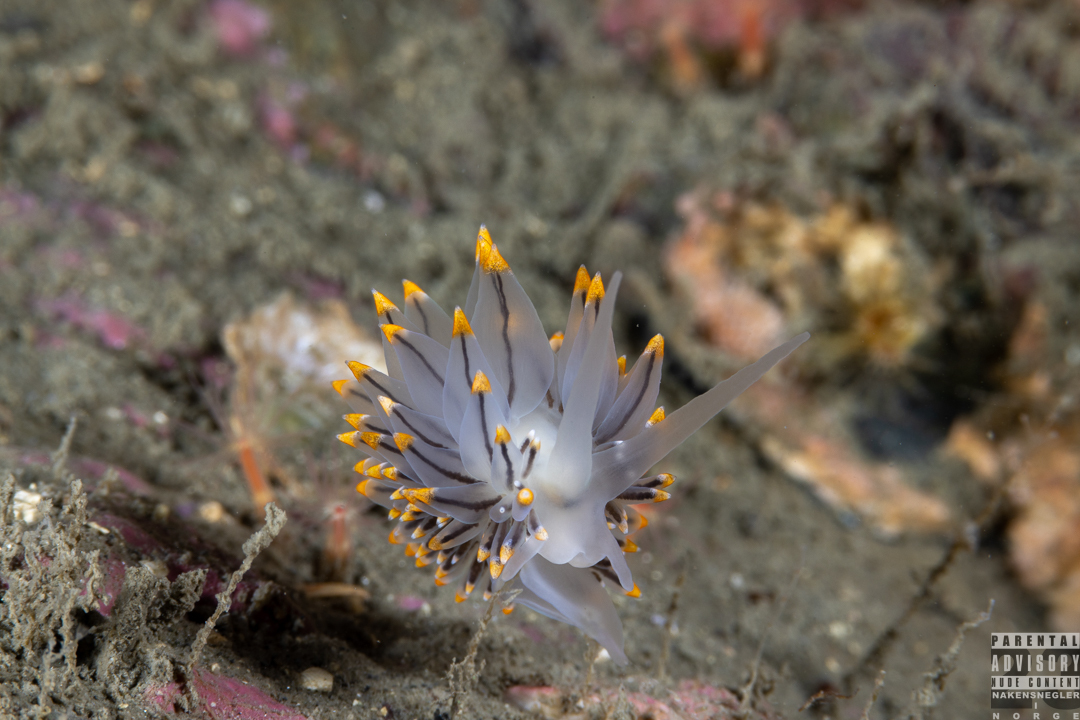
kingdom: Animalia
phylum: Mollusca
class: Gastropoda
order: Nudibranchia
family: Eubranchidae
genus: Eubranchus
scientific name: Eubranchus tricolor
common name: Painted balloon aeolis
